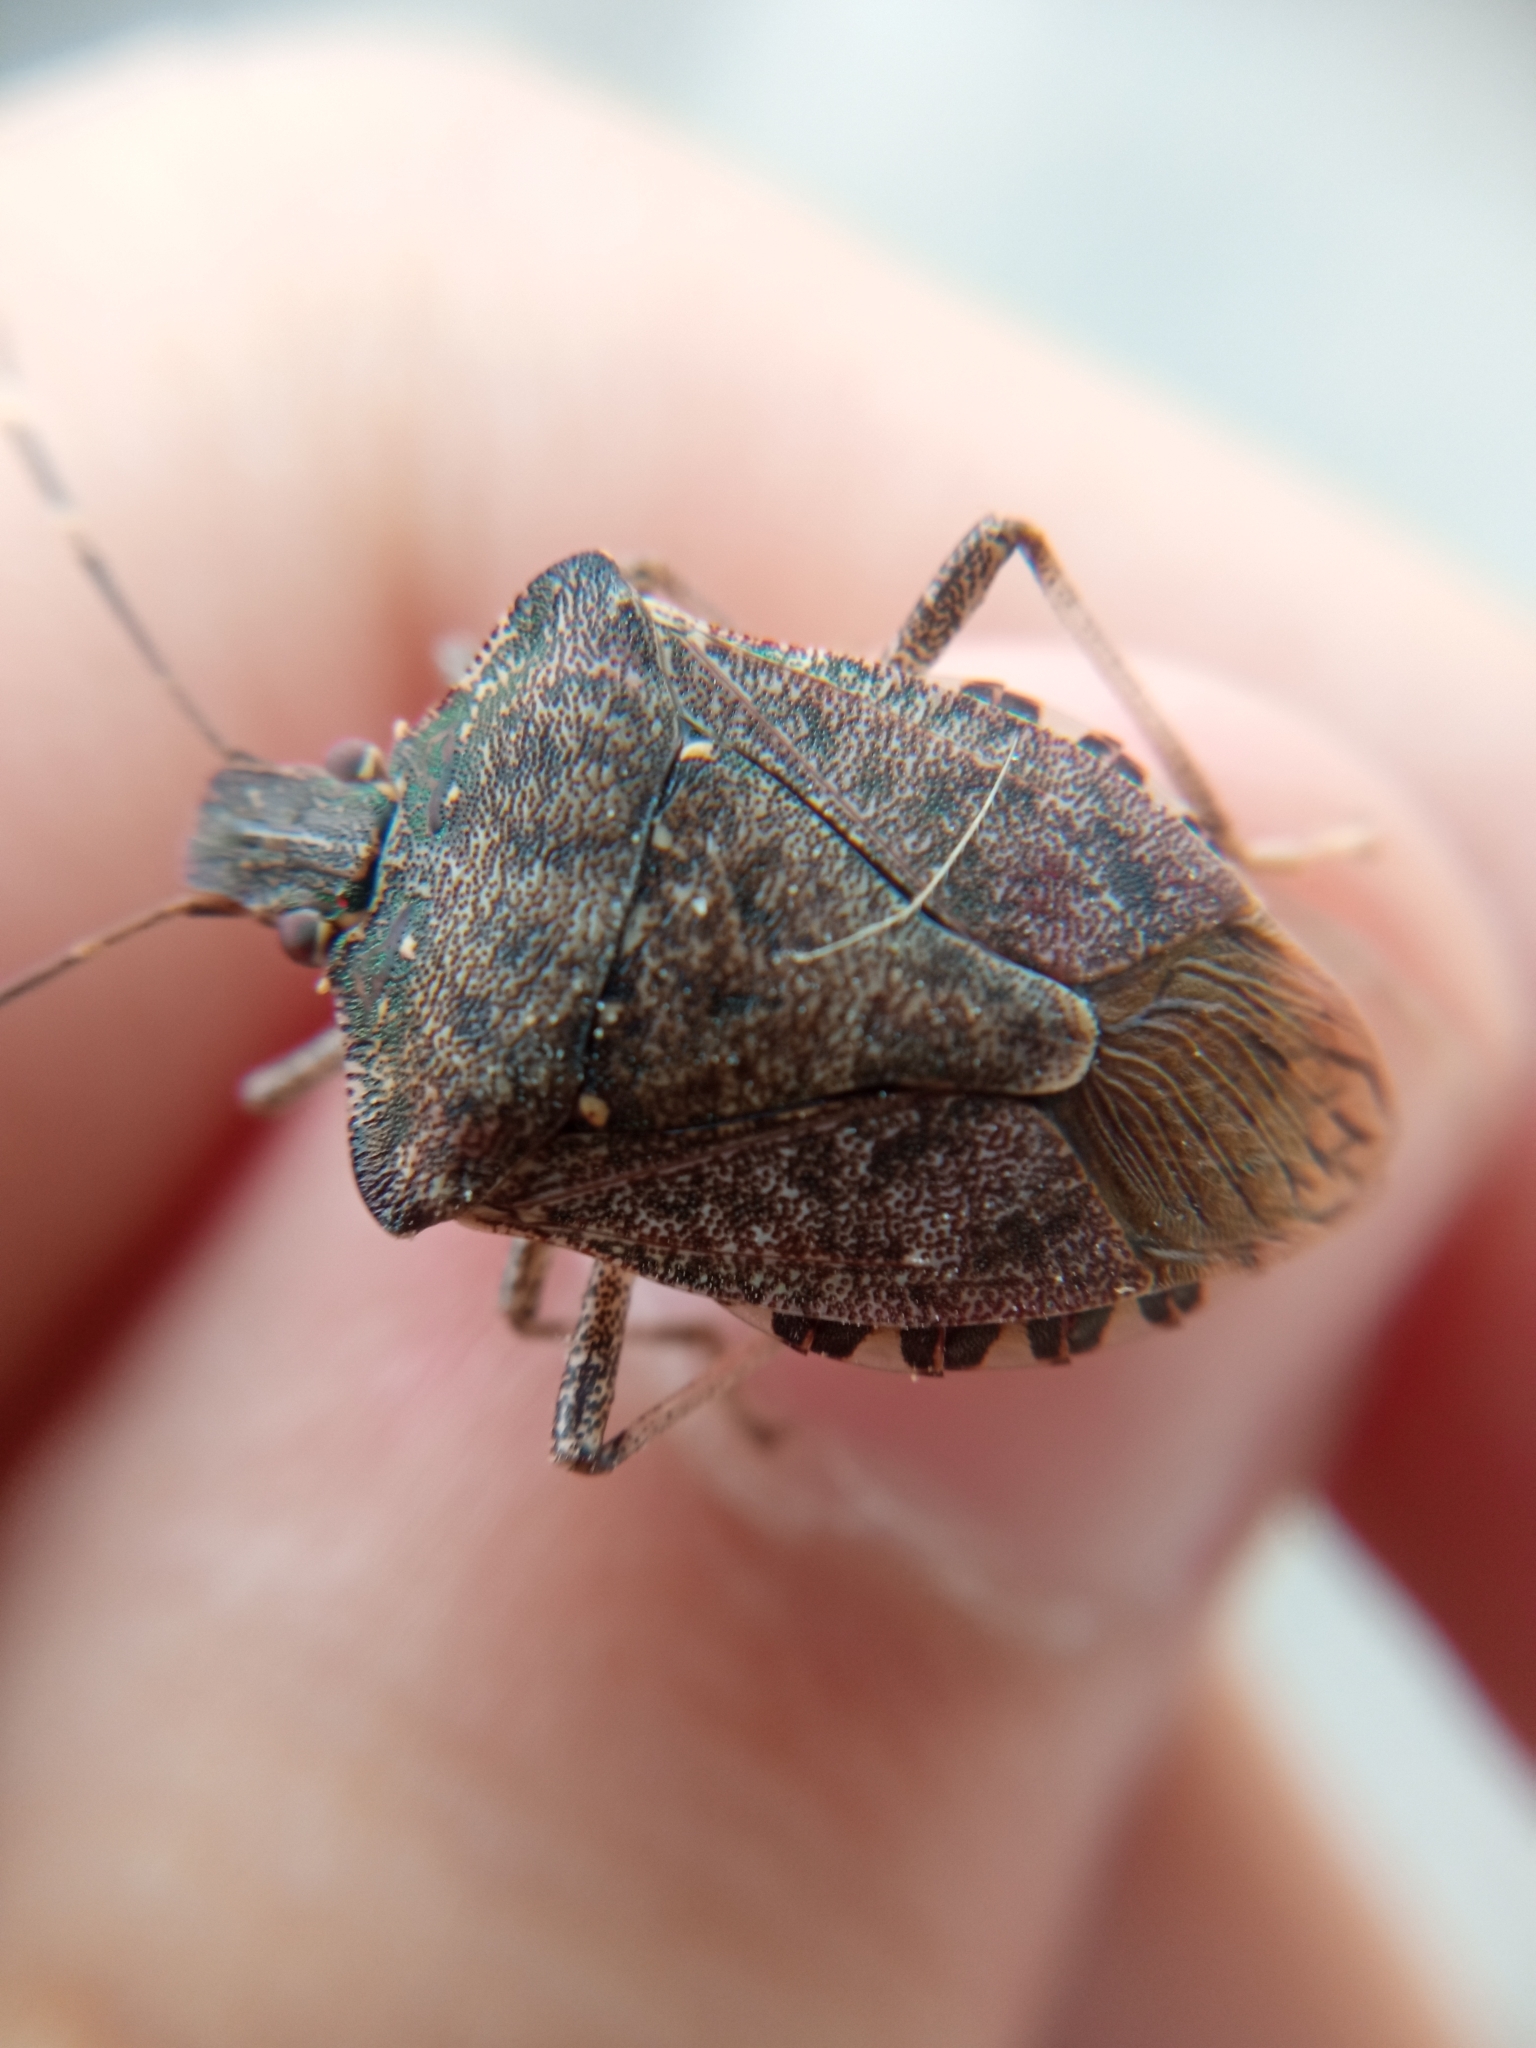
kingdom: Animalia
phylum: Arthropoda
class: Insecta
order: Hemiptera
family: Pentatomidae
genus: Halyomorpha
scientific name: Halyomorpha halys
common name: Brown marmorated stink bug
